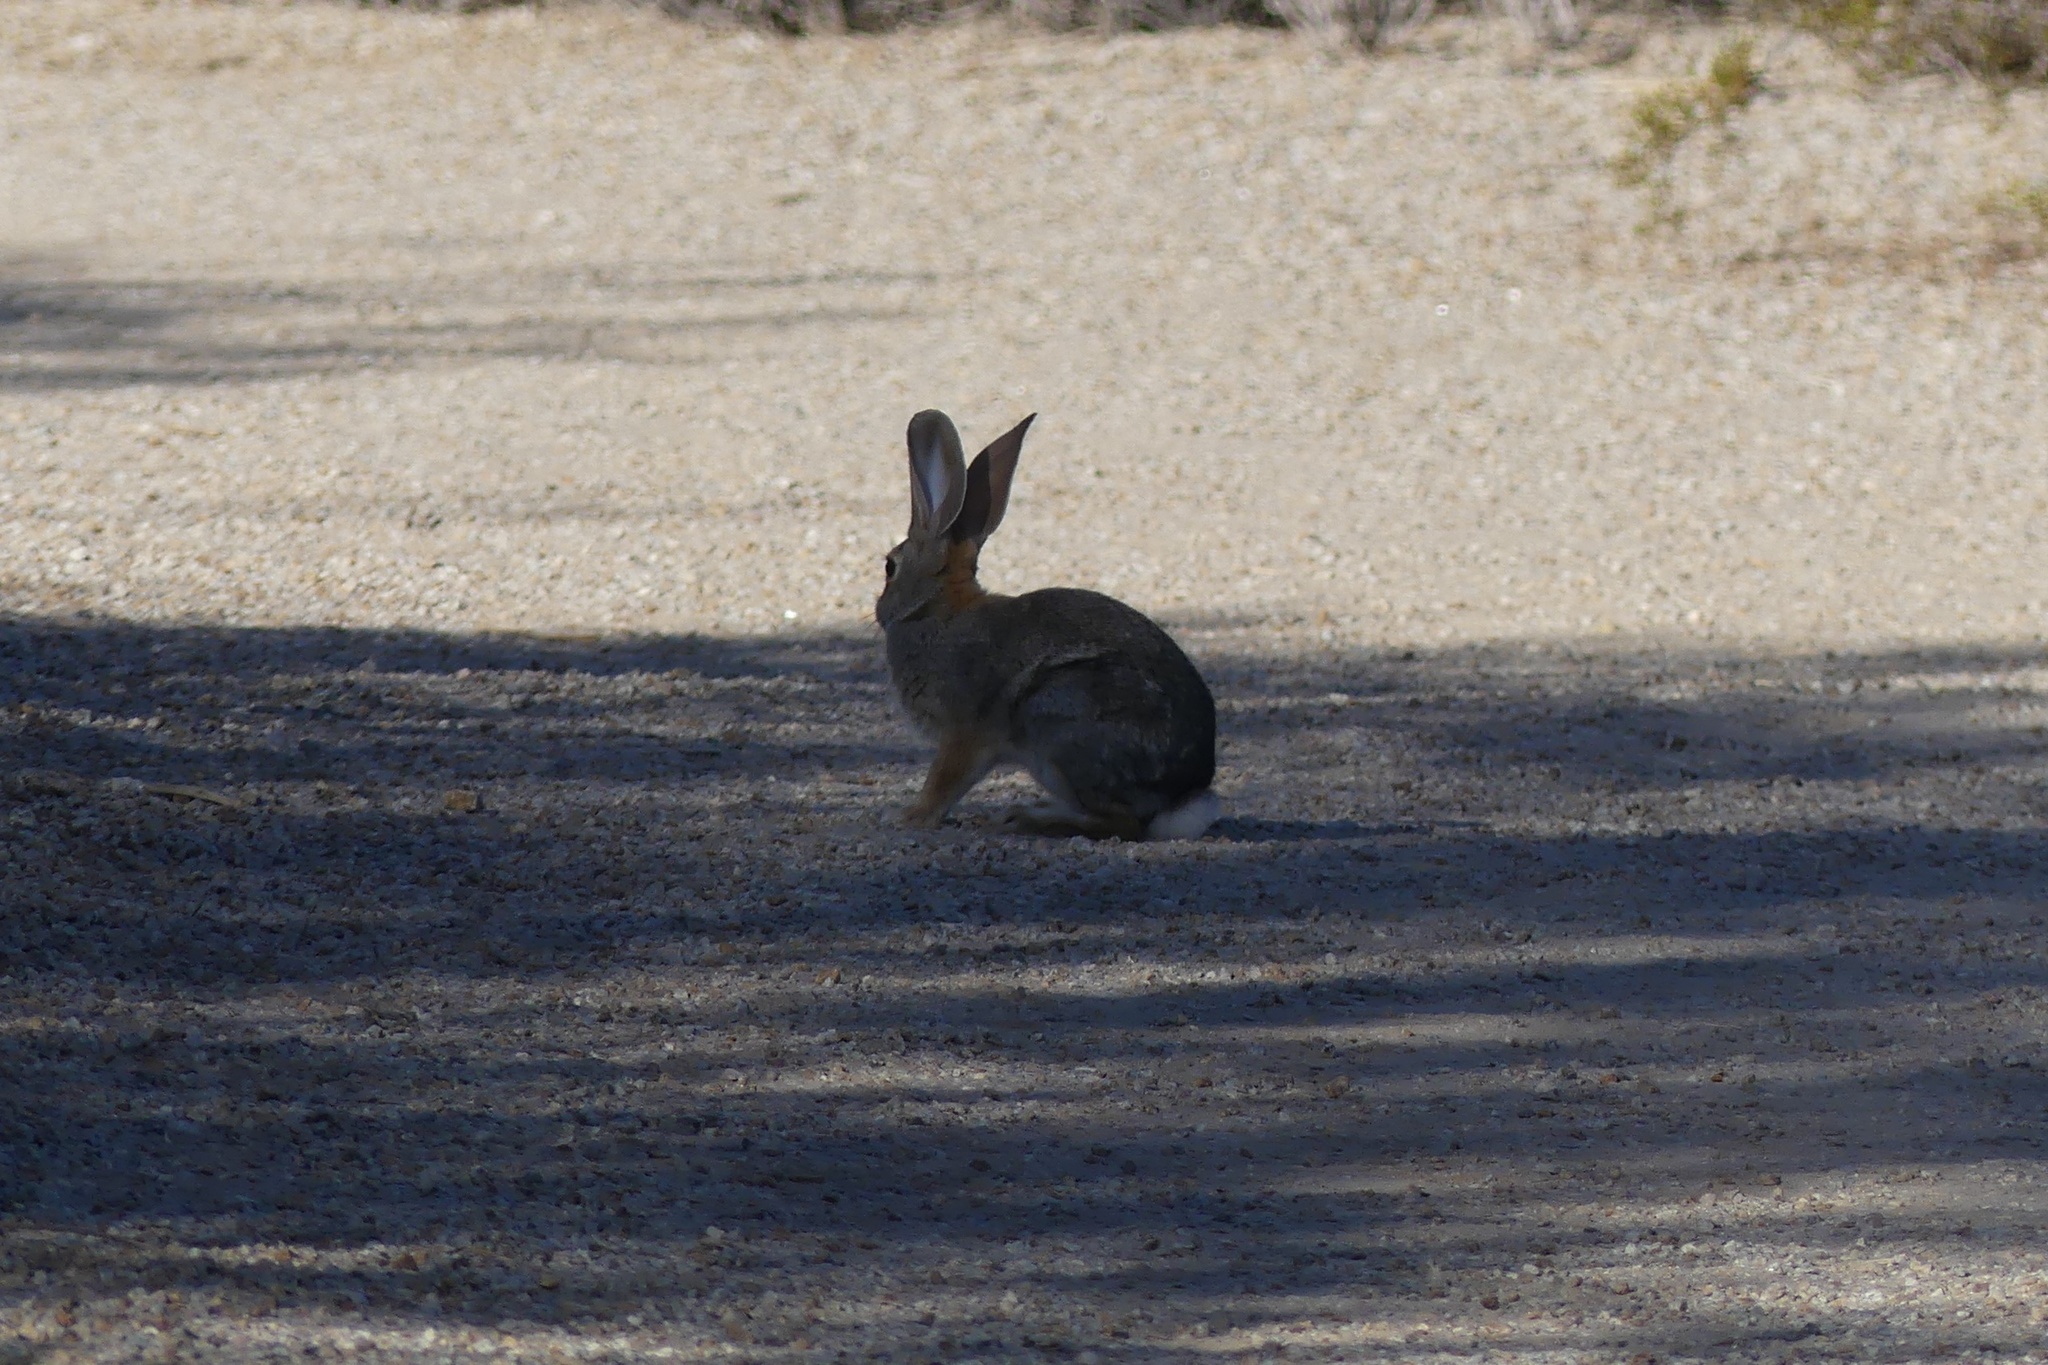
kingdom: Animalia
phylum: Chordata
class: Mammalia
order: Lagomorpha
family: Leporidae
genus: Sylvilagus
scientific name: Sylvilagus audubonii
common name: Desert cottontail
